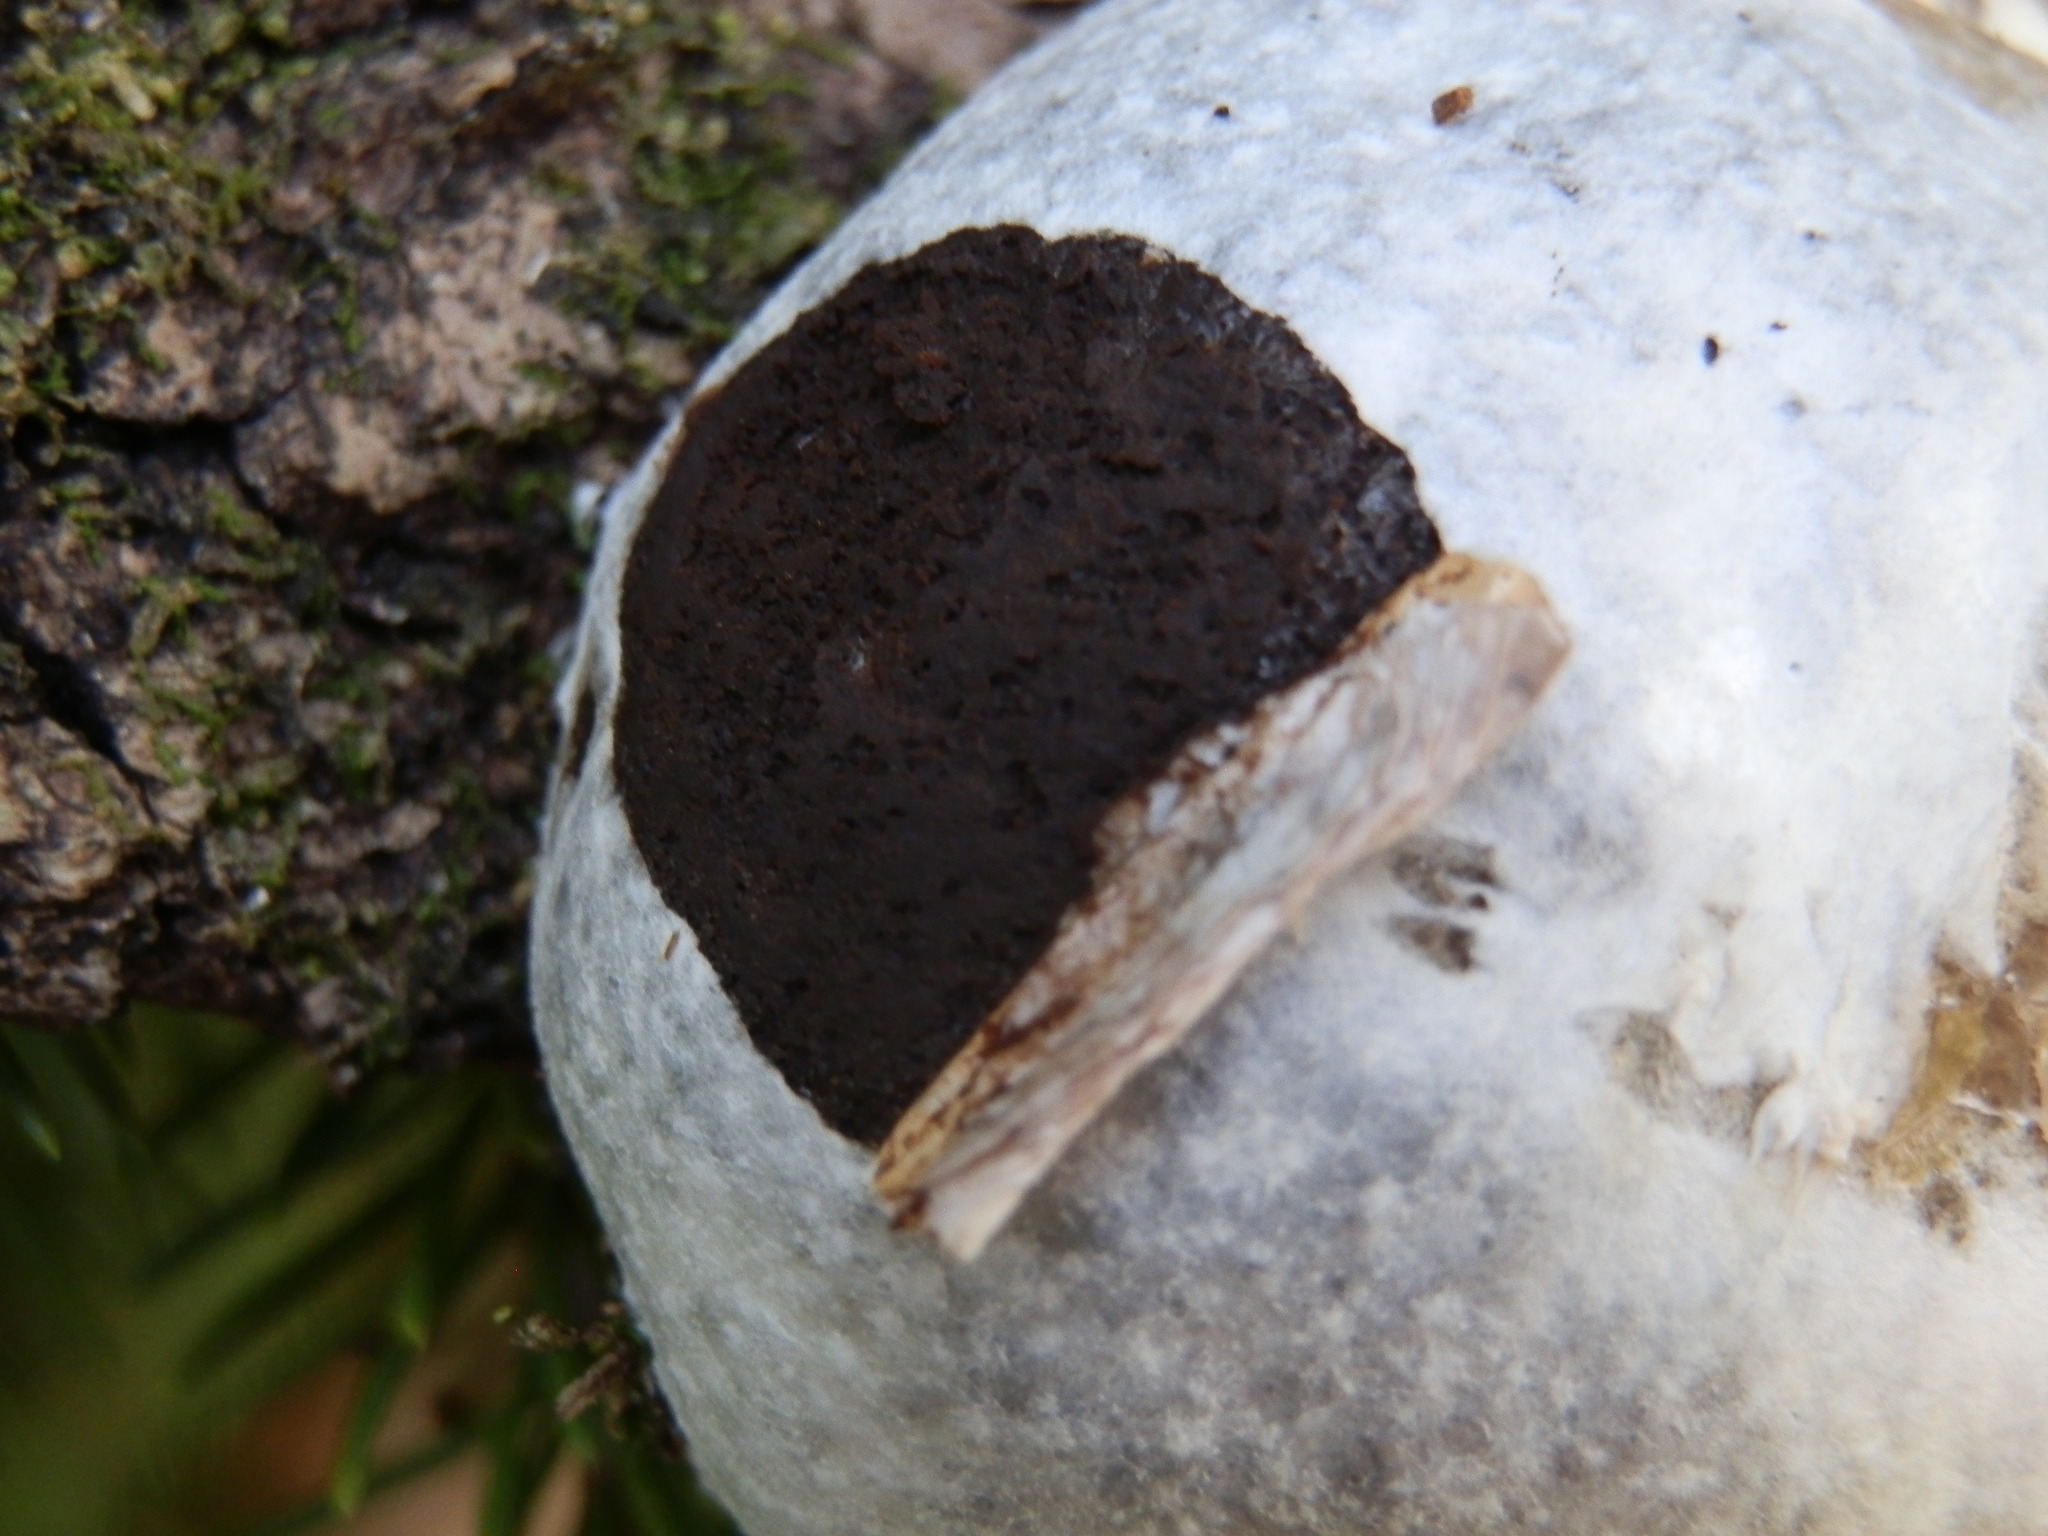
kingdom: Protozoa
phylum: Mycetozoa
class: Myxomycetes
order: Cribrariales
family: Tubiferaceae
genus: Reticularia
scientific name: Reticularia lycoperdon
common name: False puffball
